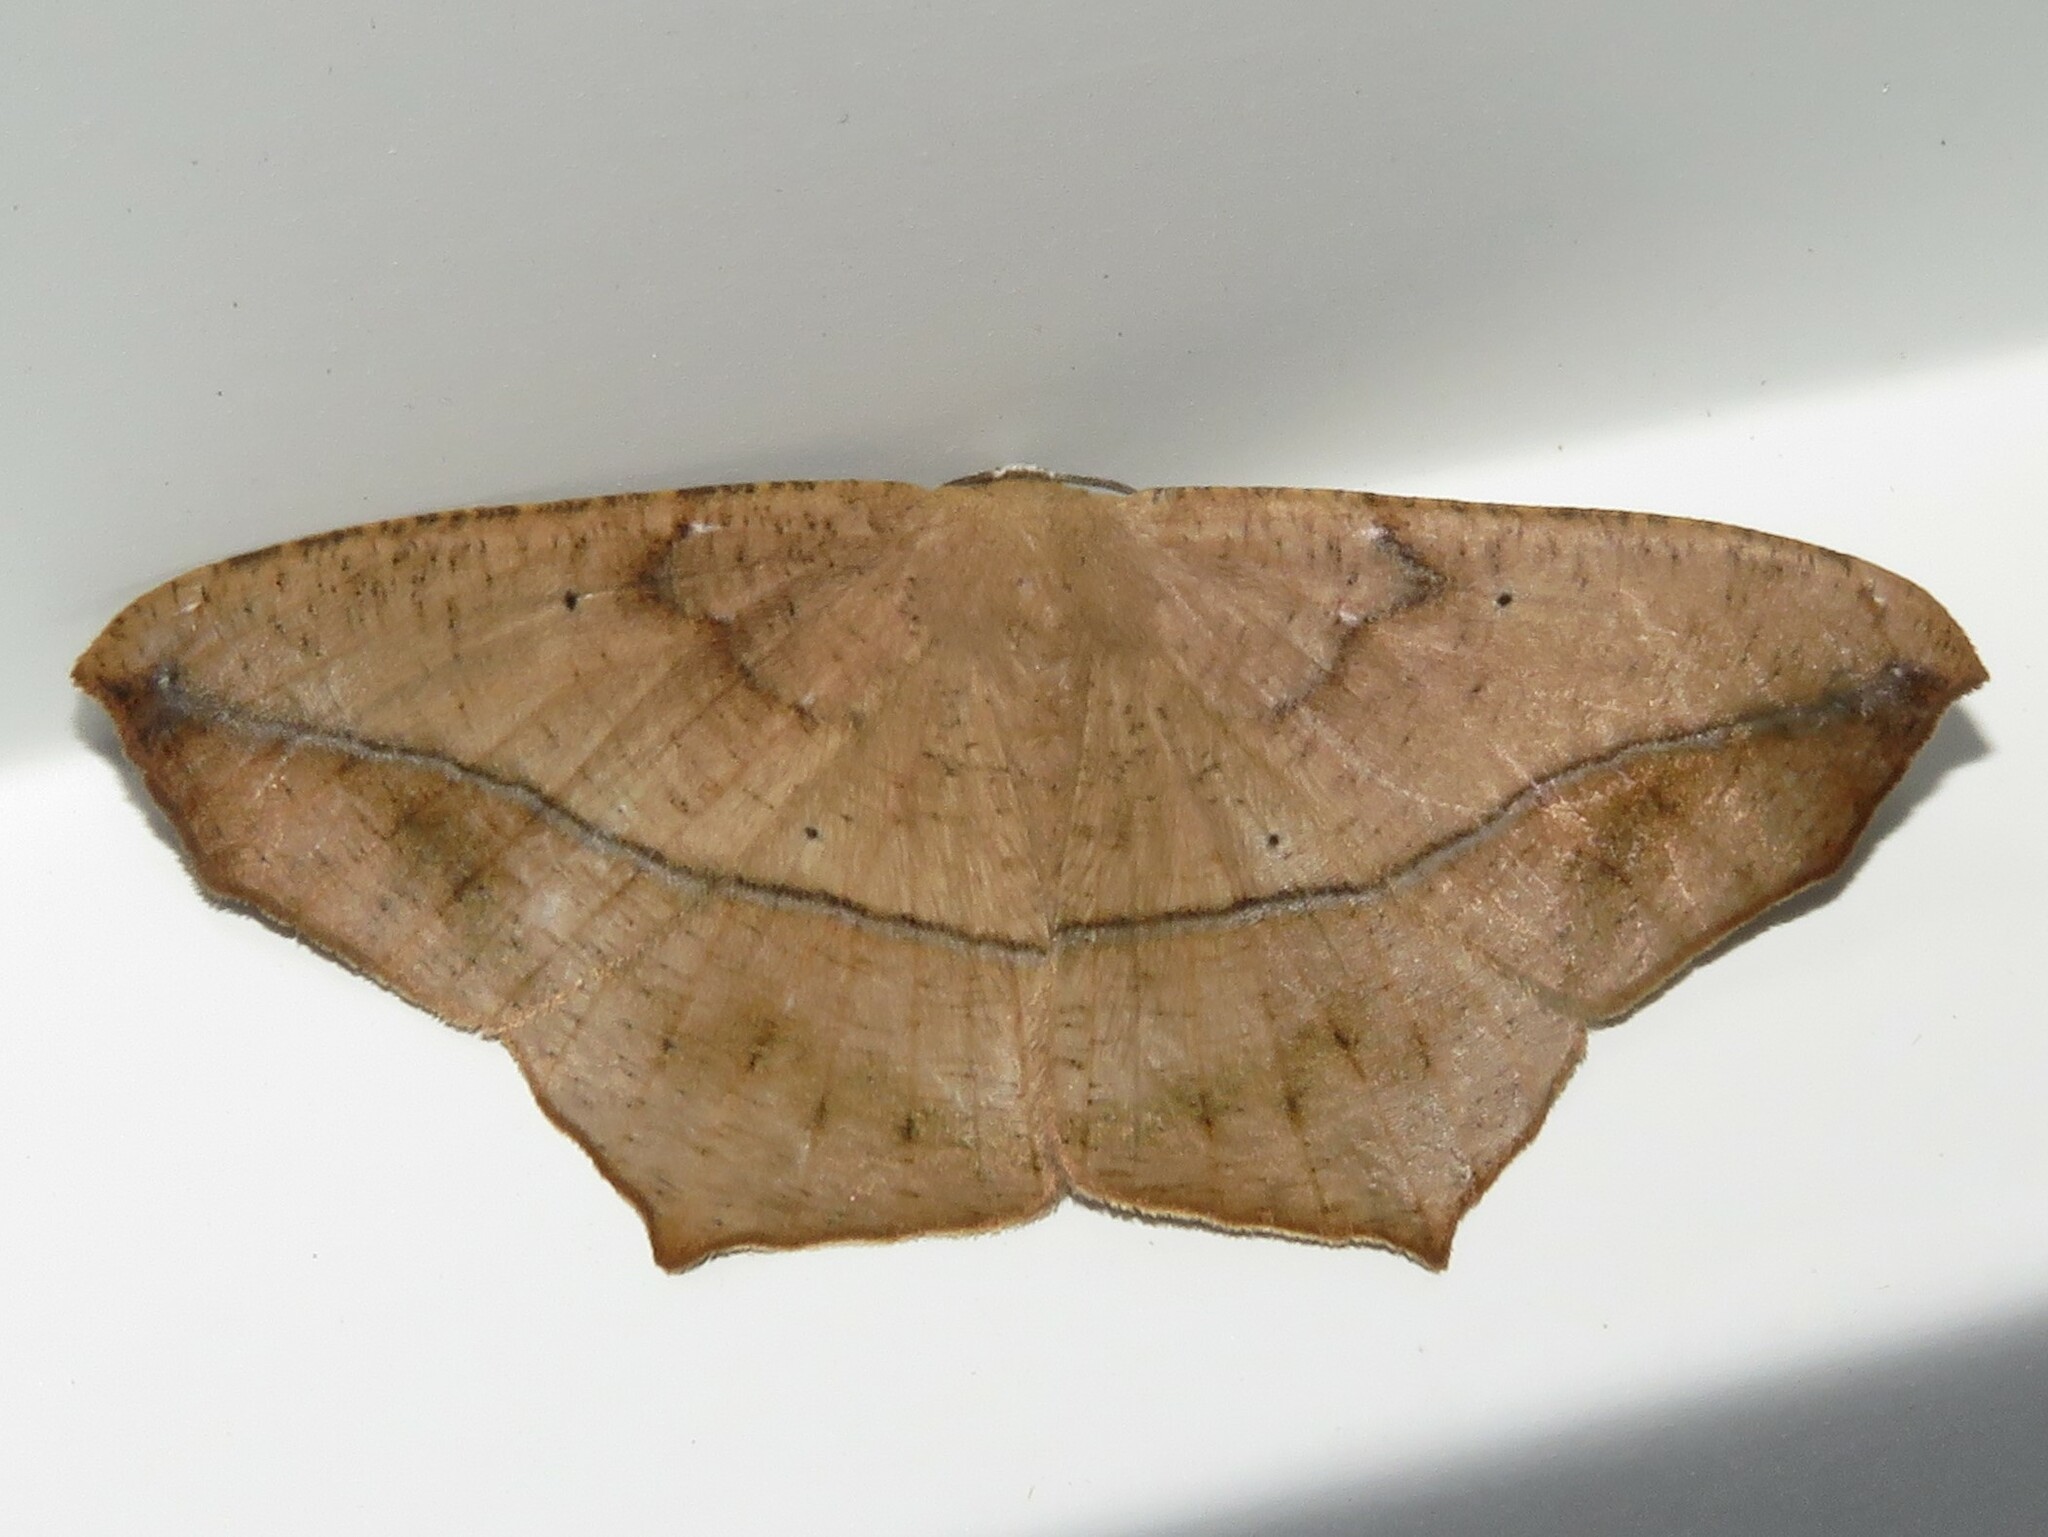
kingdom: Animalia
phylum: Arthropoda
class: Insecta
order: Lepidoptera
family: Geometridae
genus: Prochoerodes
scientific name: Prochoerodes lineola
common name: Large maple spanworm
